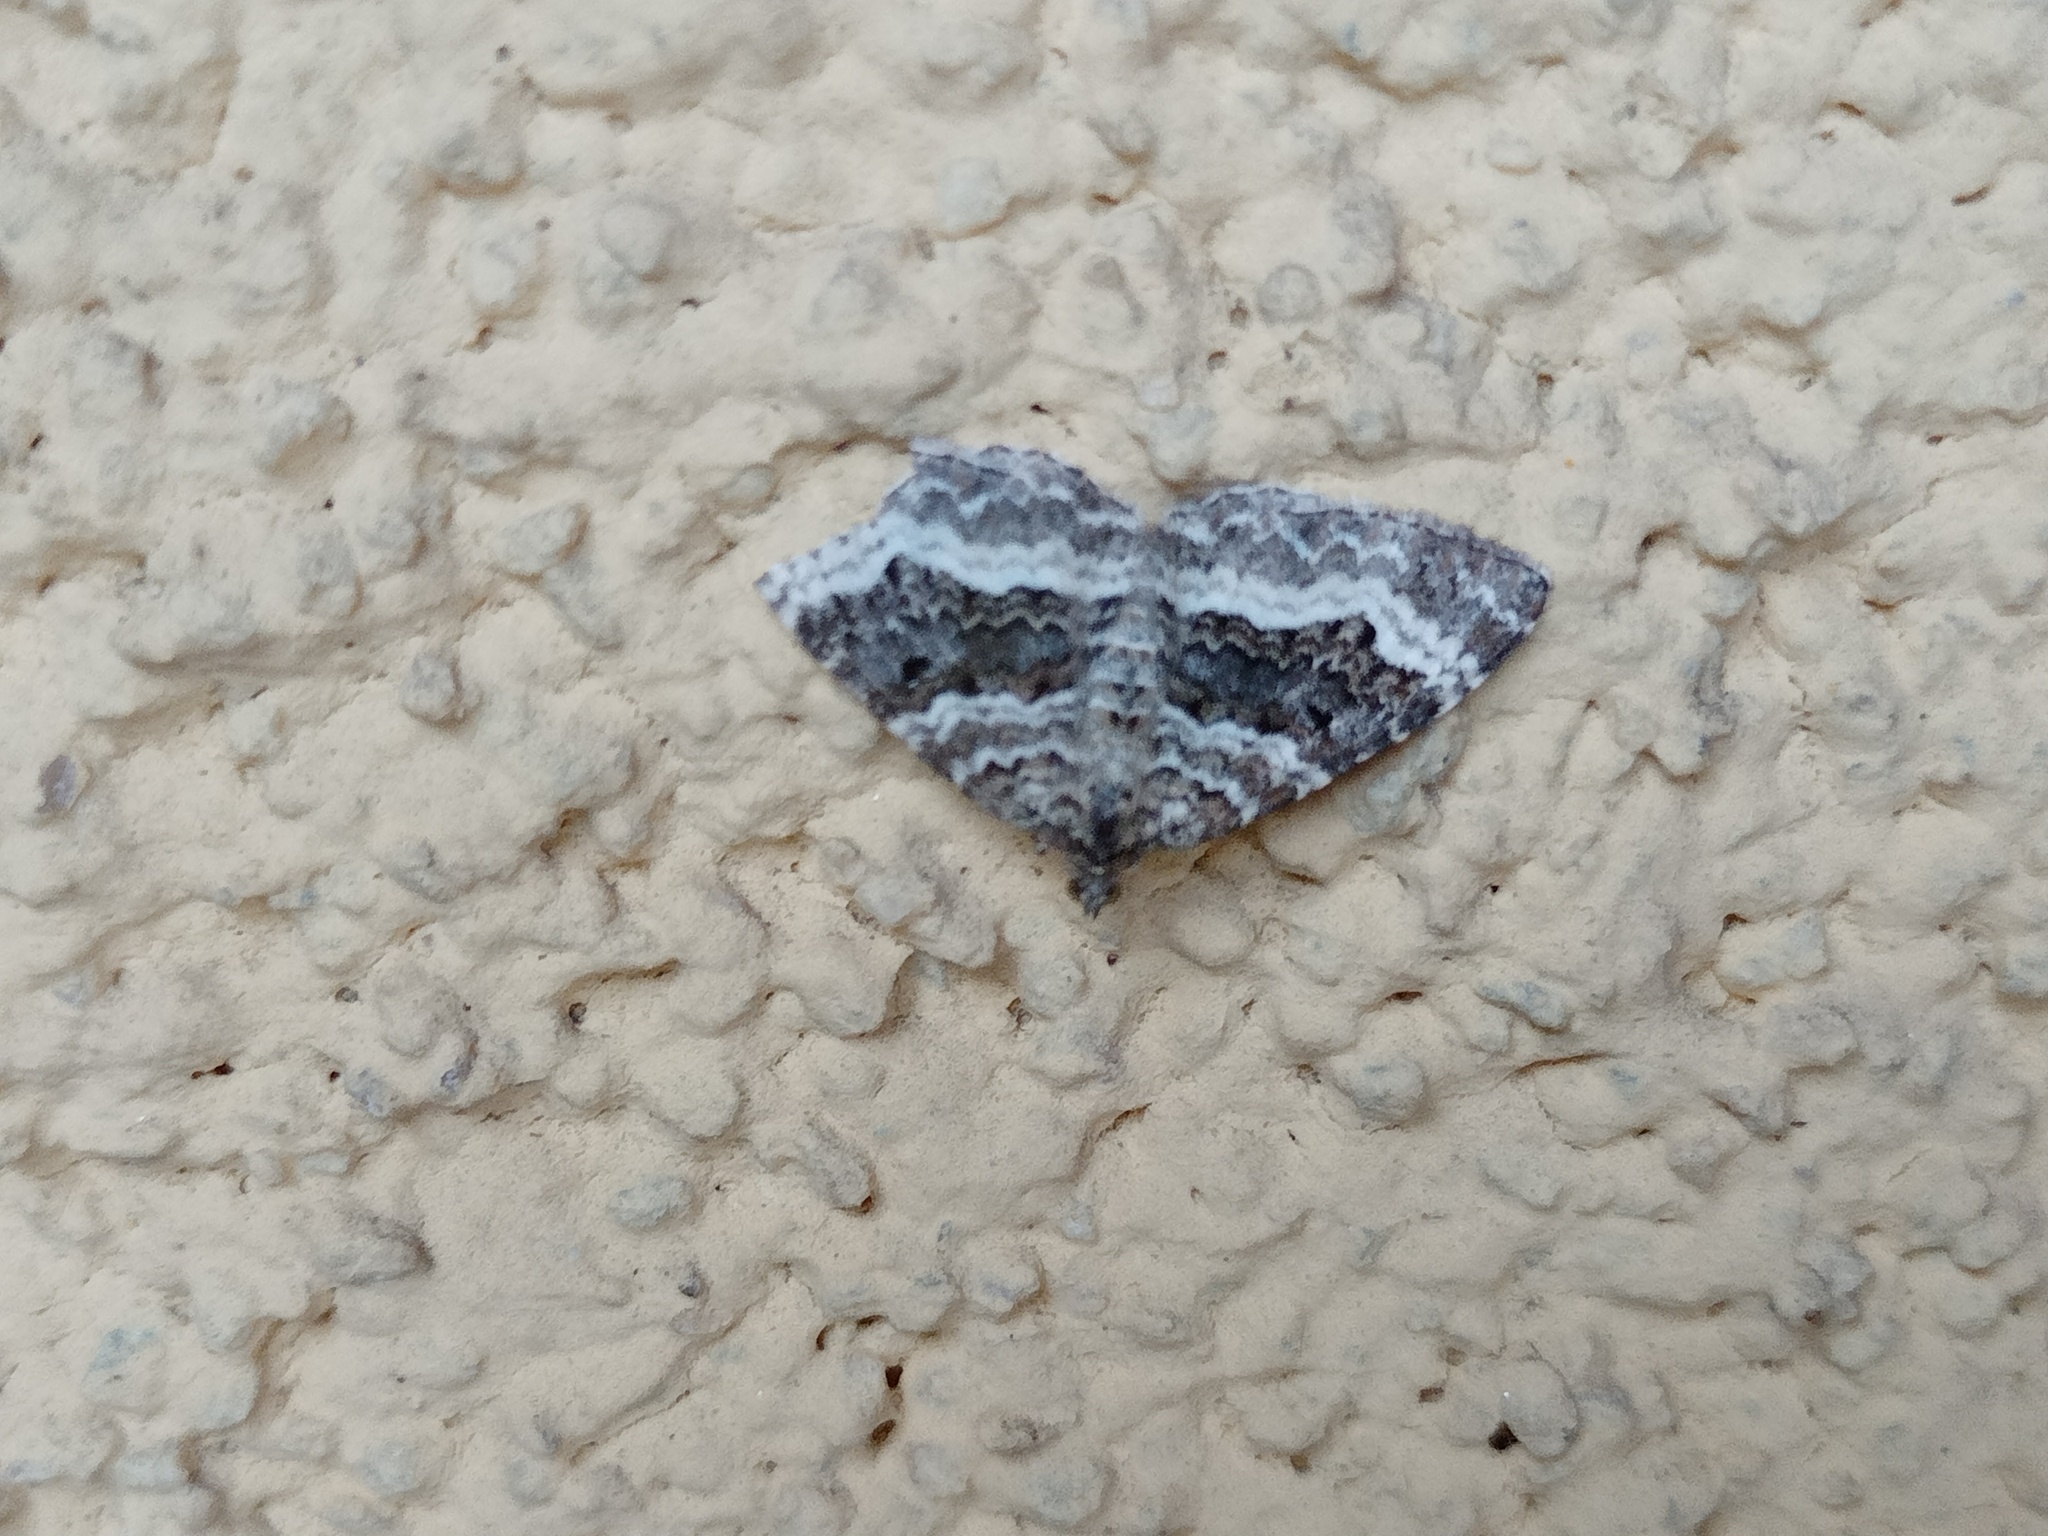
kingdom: Animalia
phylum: Arthropoda
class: Insecta
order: Lepidoptera
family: Geometridae
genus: Epirrhoe
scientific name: Epirrhoe alternata
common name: Common carpet
